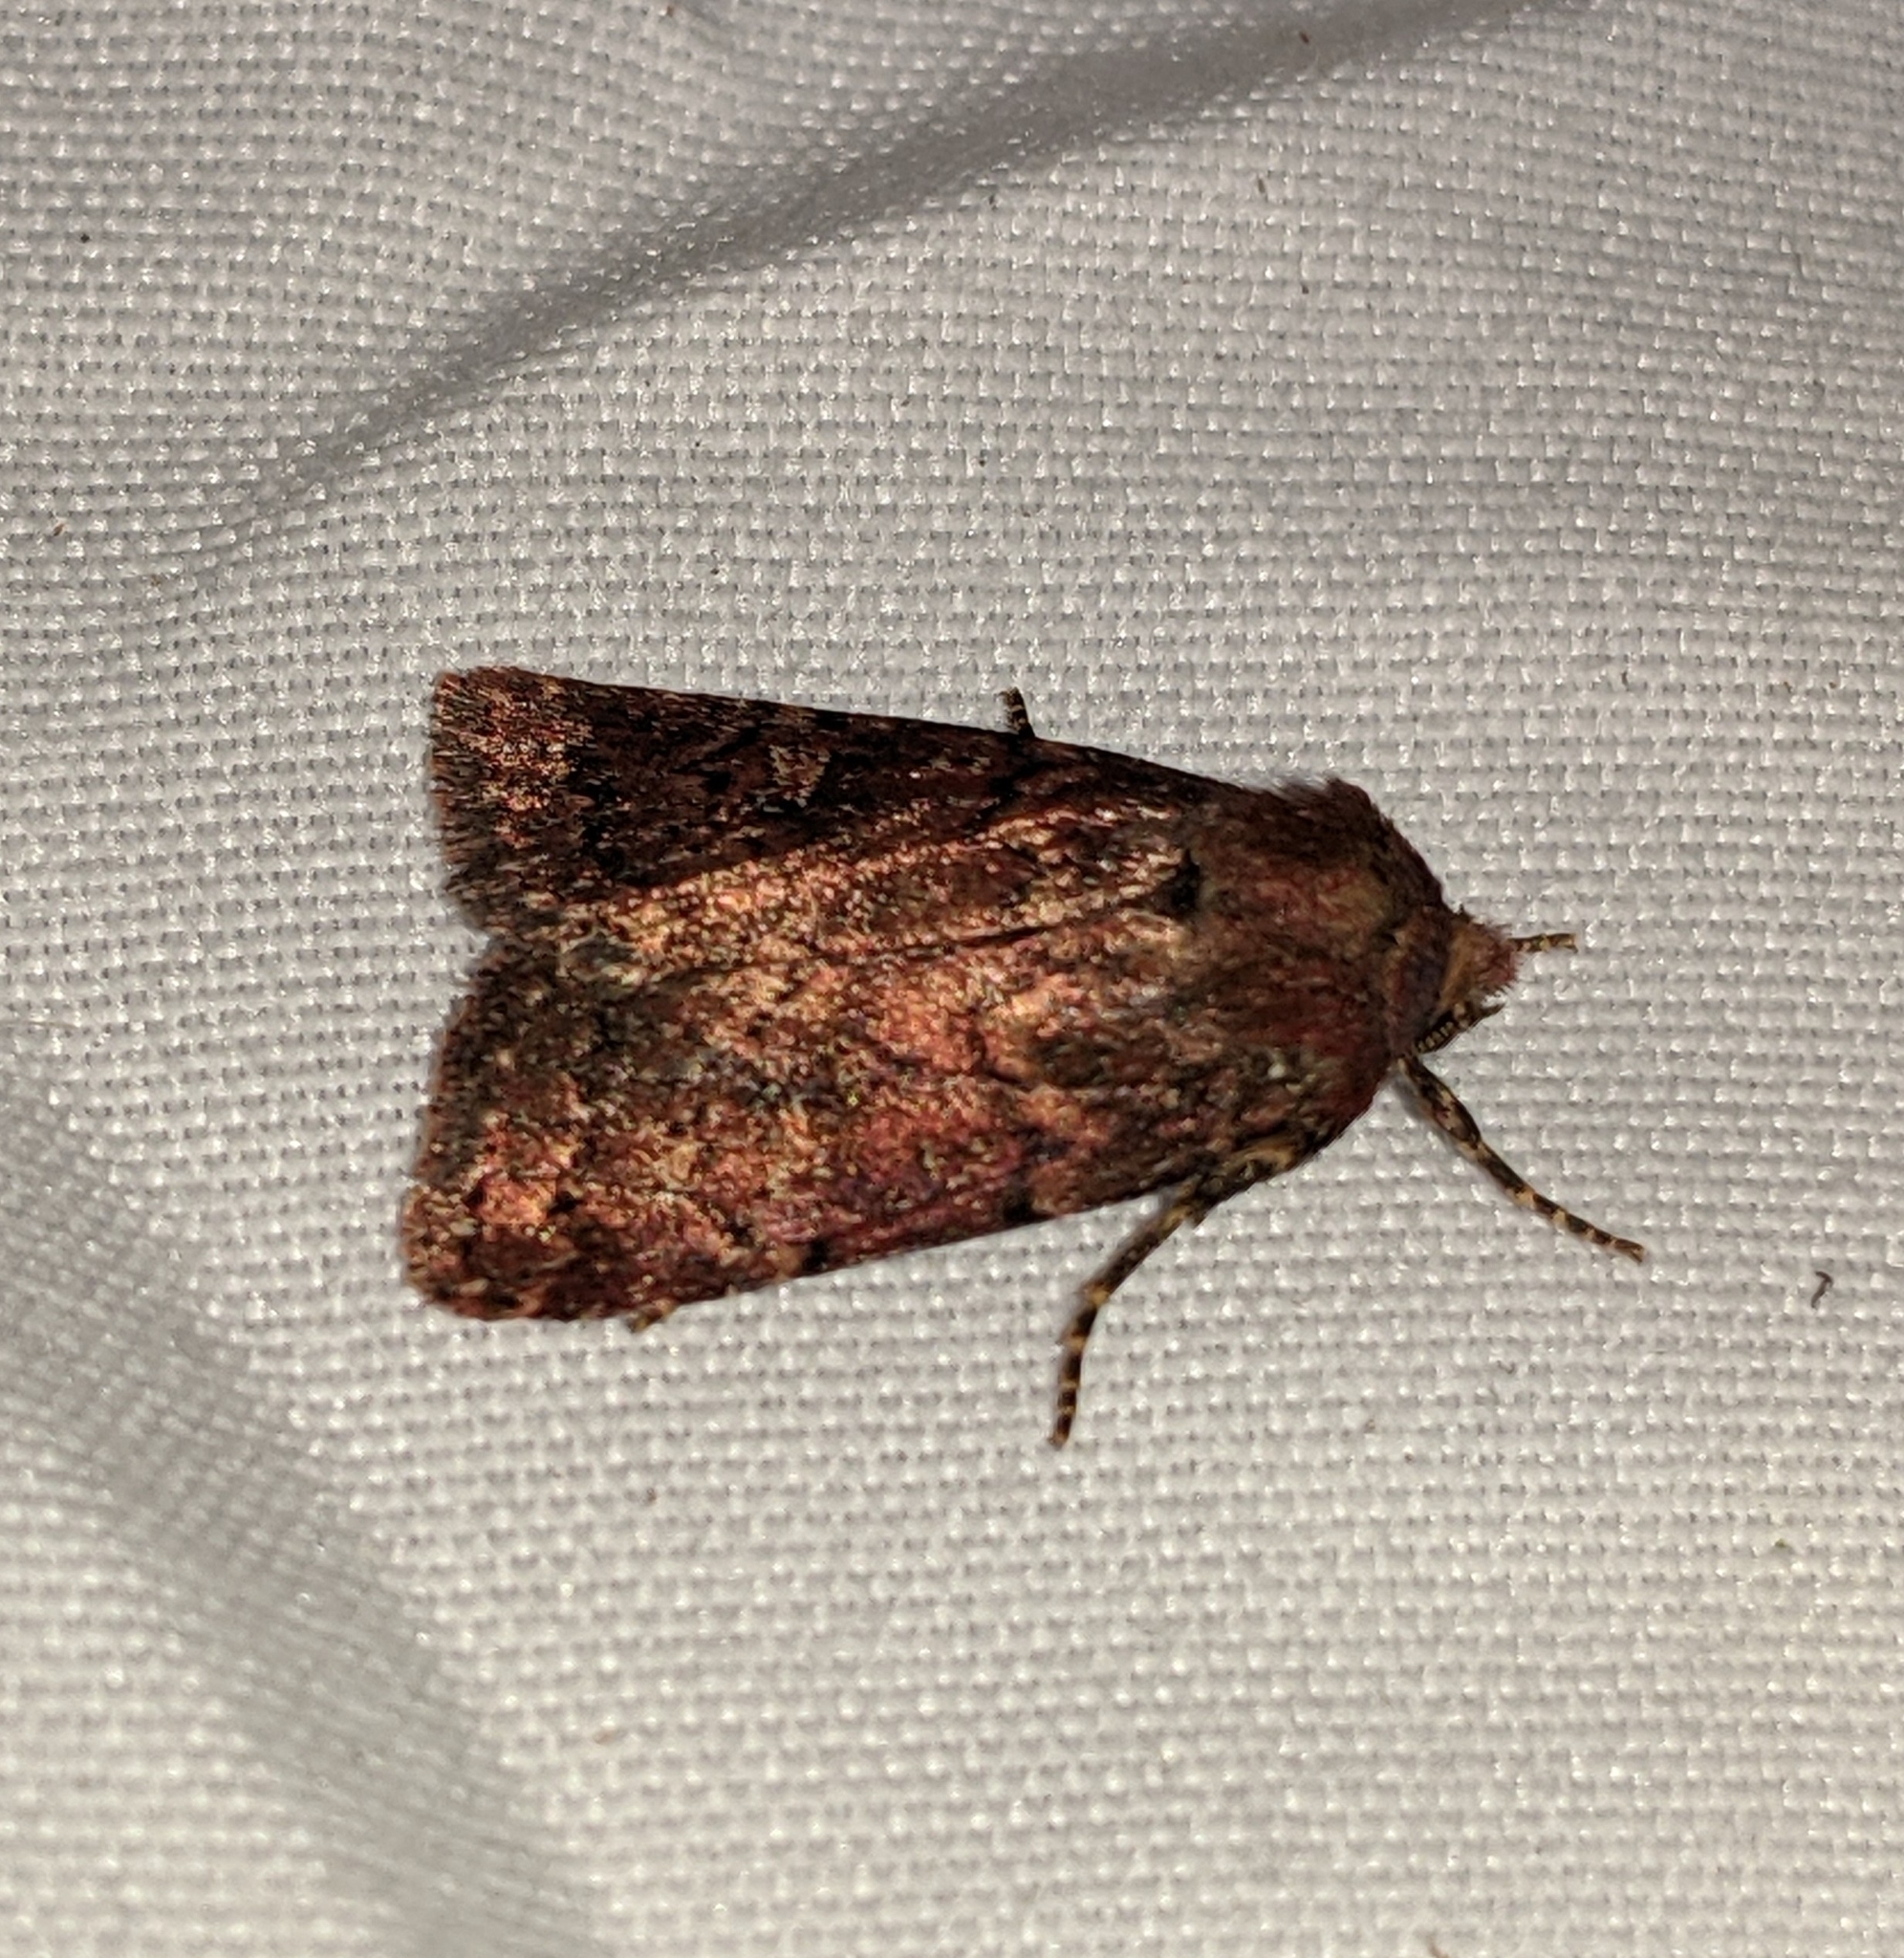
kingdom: Animalia
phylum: Arthropoda
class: Insecta
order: Lepidoptera
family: Noctuidae
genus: Anhimella
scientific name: Anhimella perbrunnea
